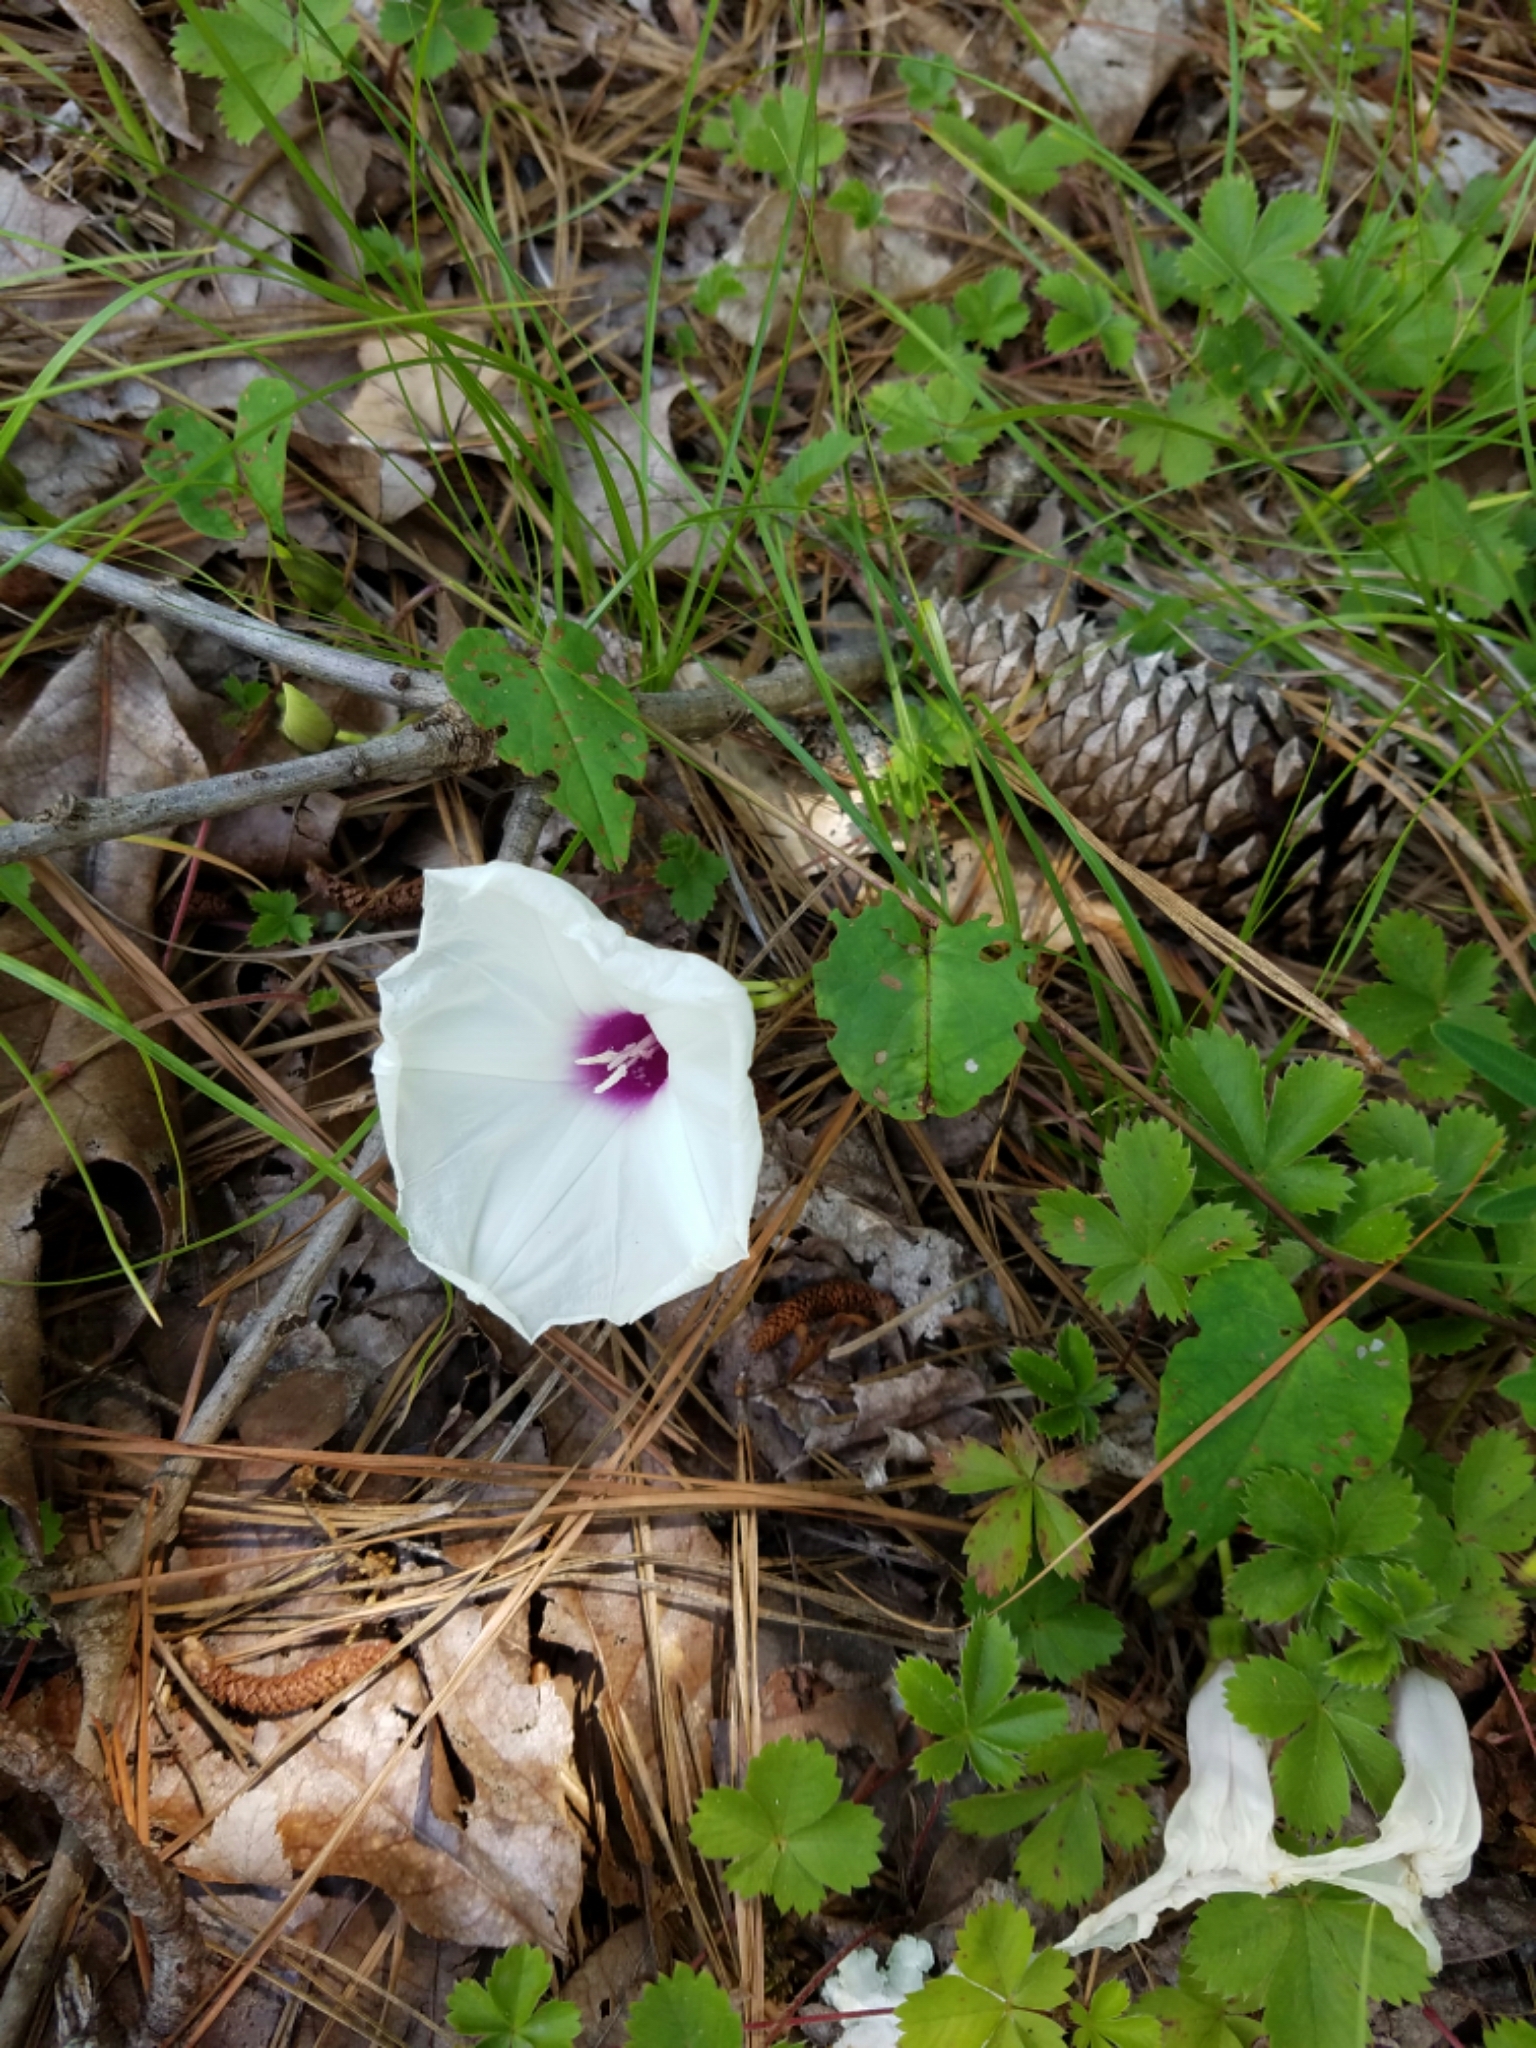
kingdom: Plantae
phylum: Tracheophyta
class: Magnoliopsida
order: Solanales
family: Convolvulaceae
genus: Ipomoea
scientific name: Ipomoea pandurata
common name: Man-of-the-earth
